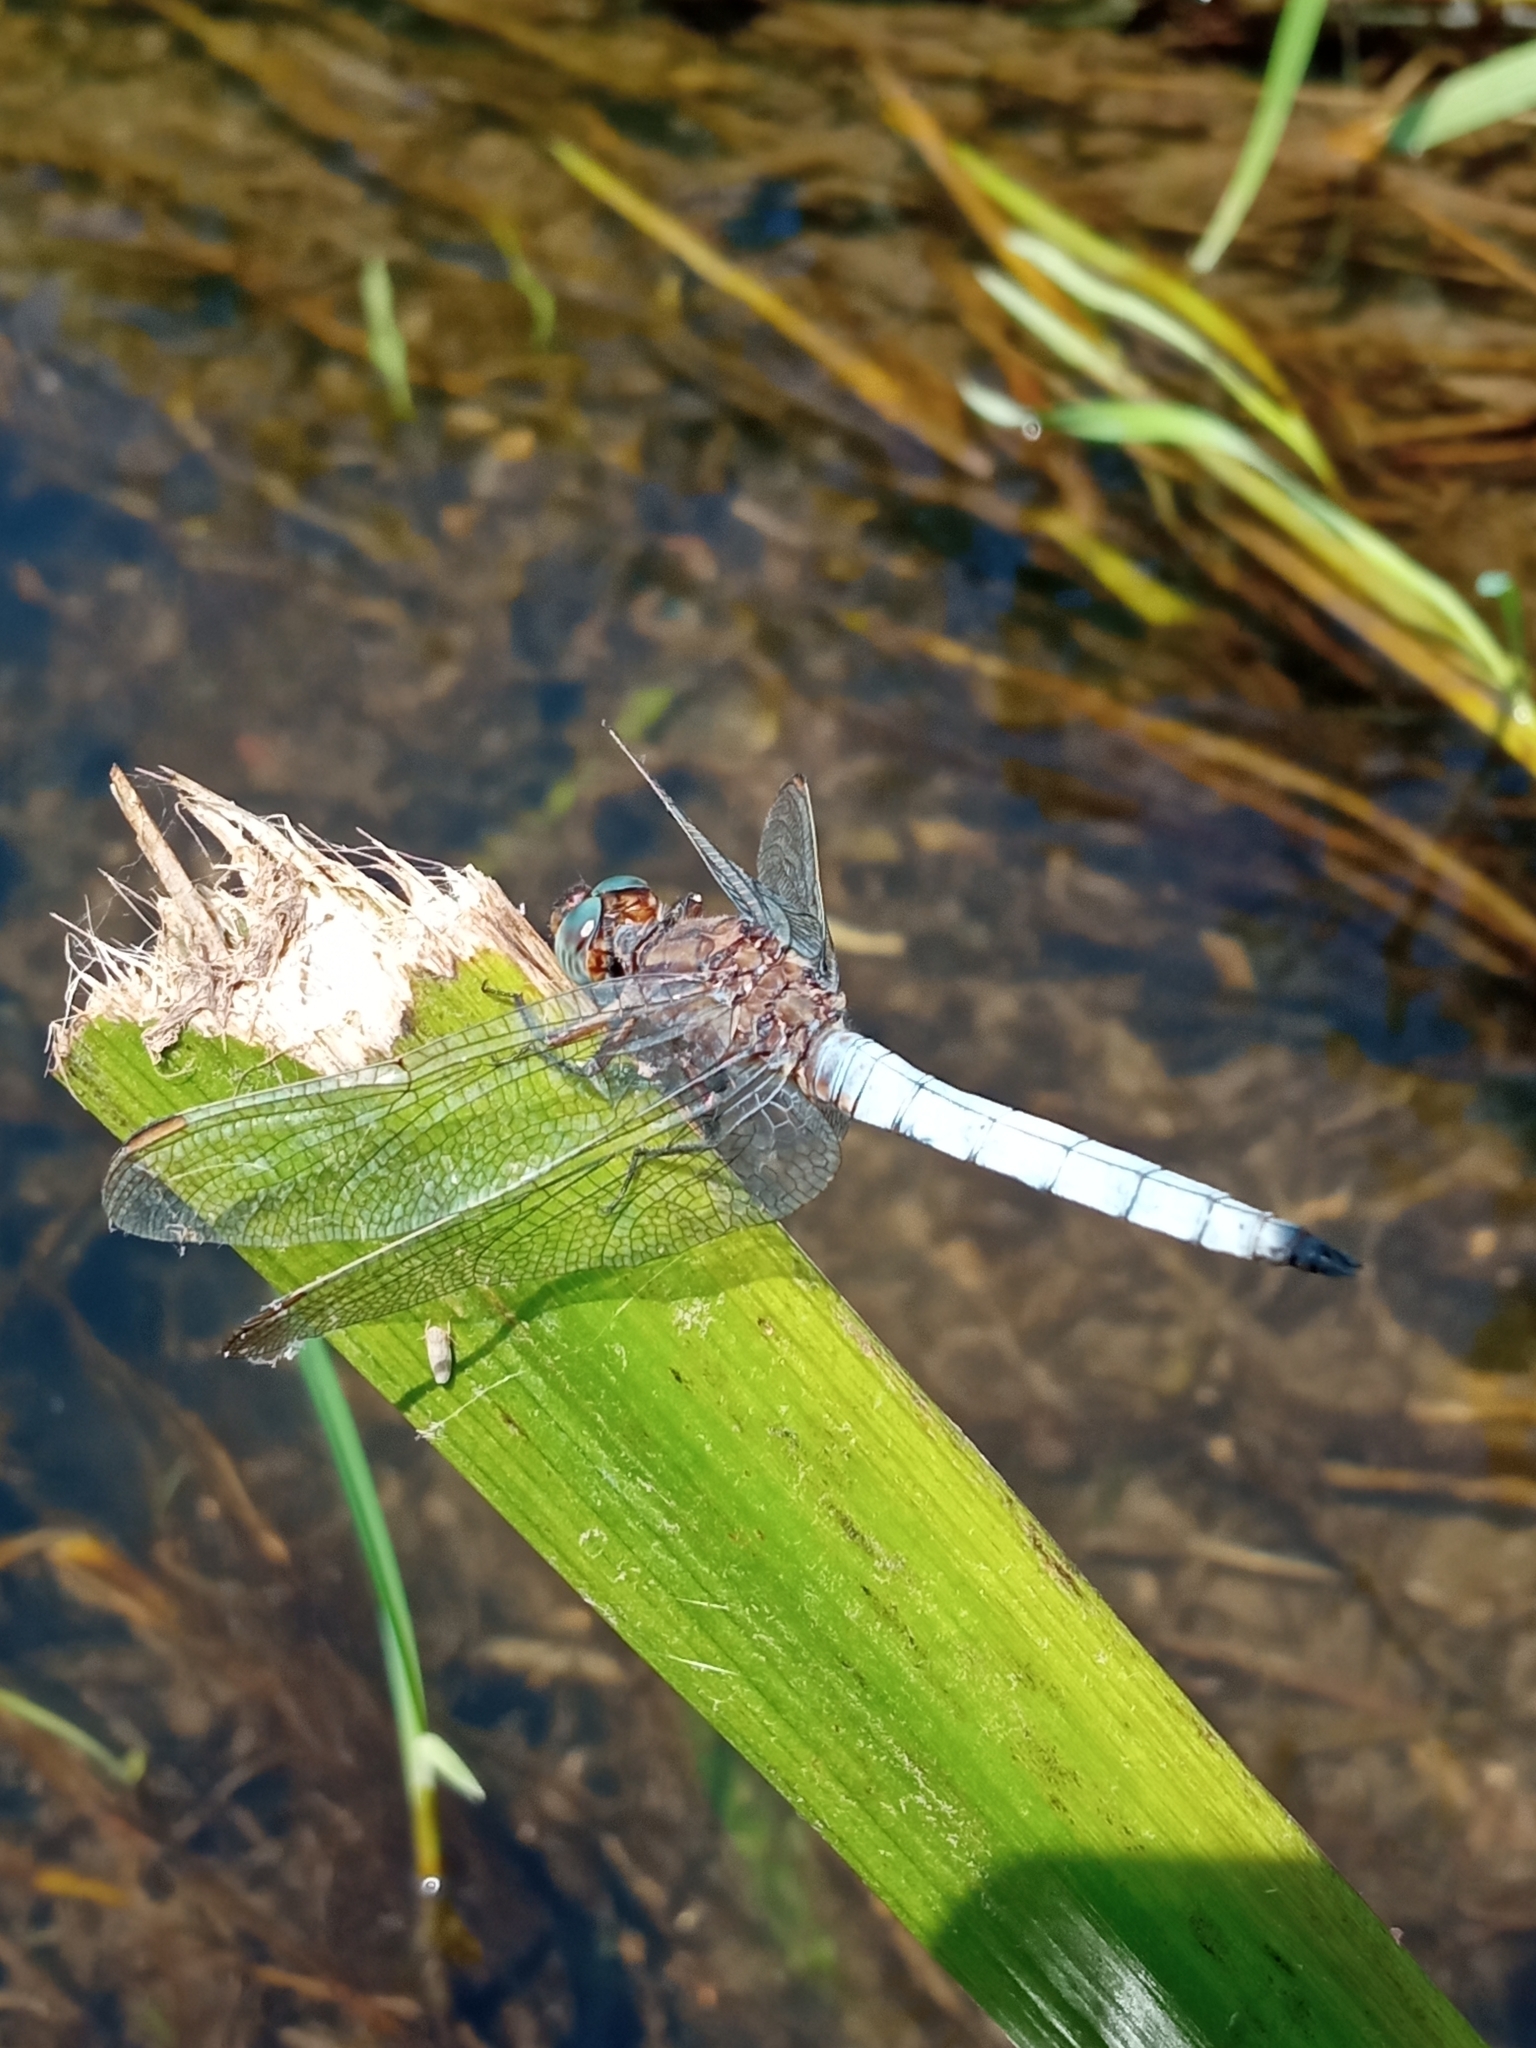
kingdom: Animalia
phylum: Arthropoda
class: Insecta
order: Odonata
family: Libellulidae
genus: Orthetrum
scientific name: Orthetrum coerulescens
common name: Keeled skimmer
